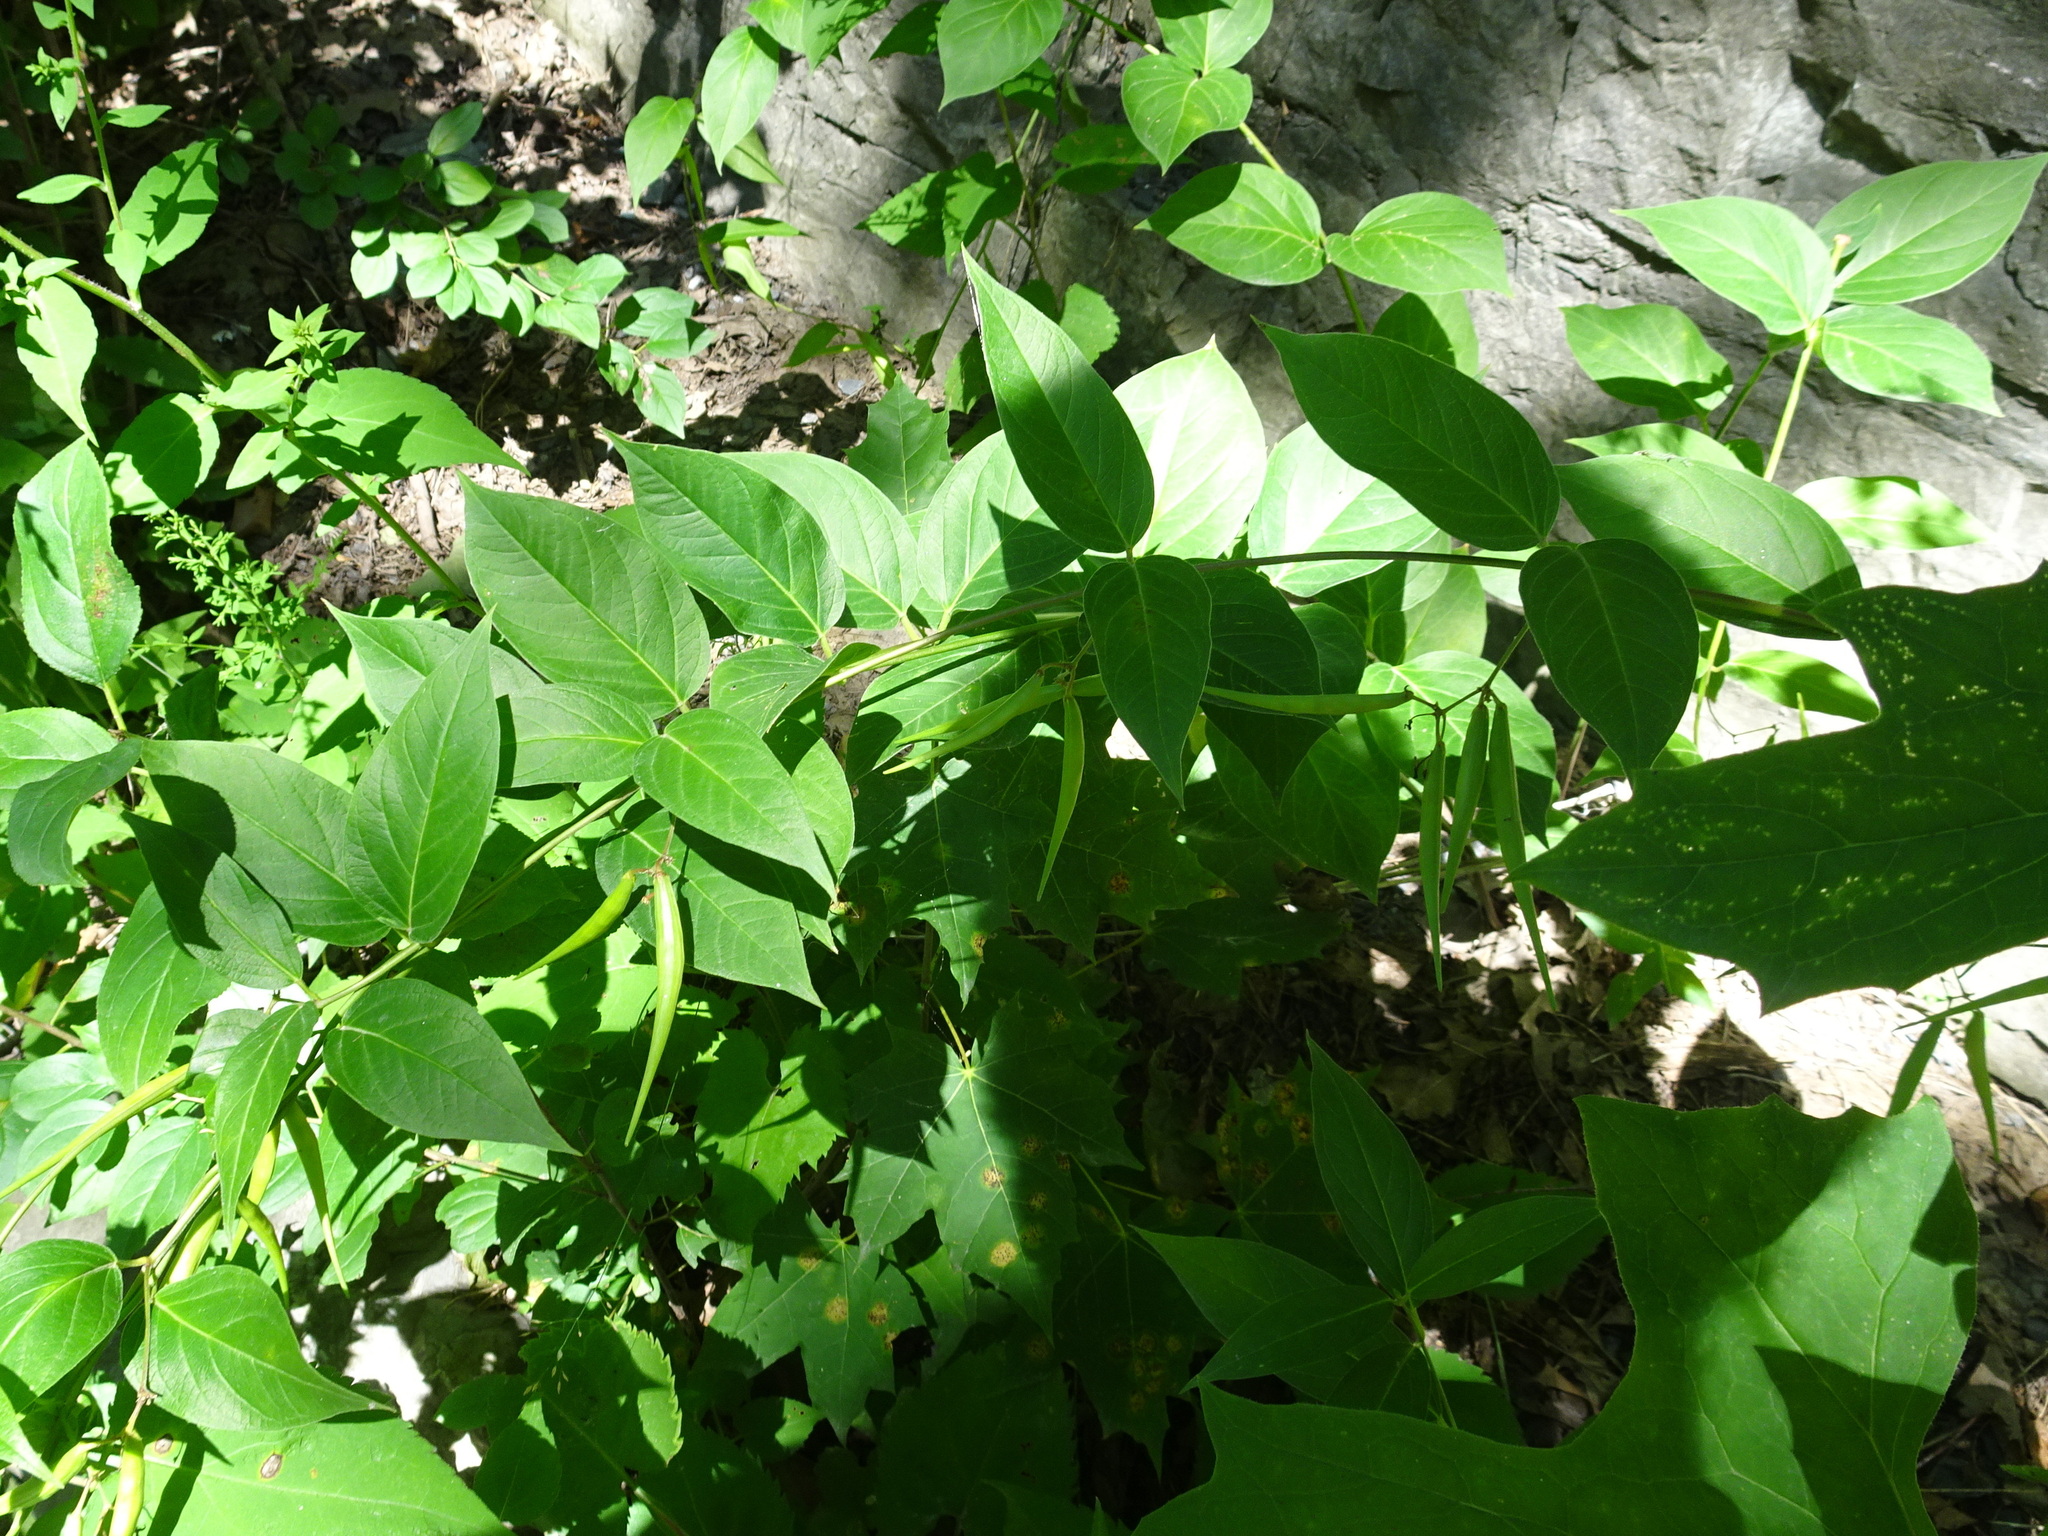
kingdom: Plantae
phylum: Tracheophyta
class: Magnoliopsida
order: Gentianales
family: Apocynaceae
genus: Vincetoxicum
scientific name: Vincetoxicum rossicum
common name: Dog-strangling vine
